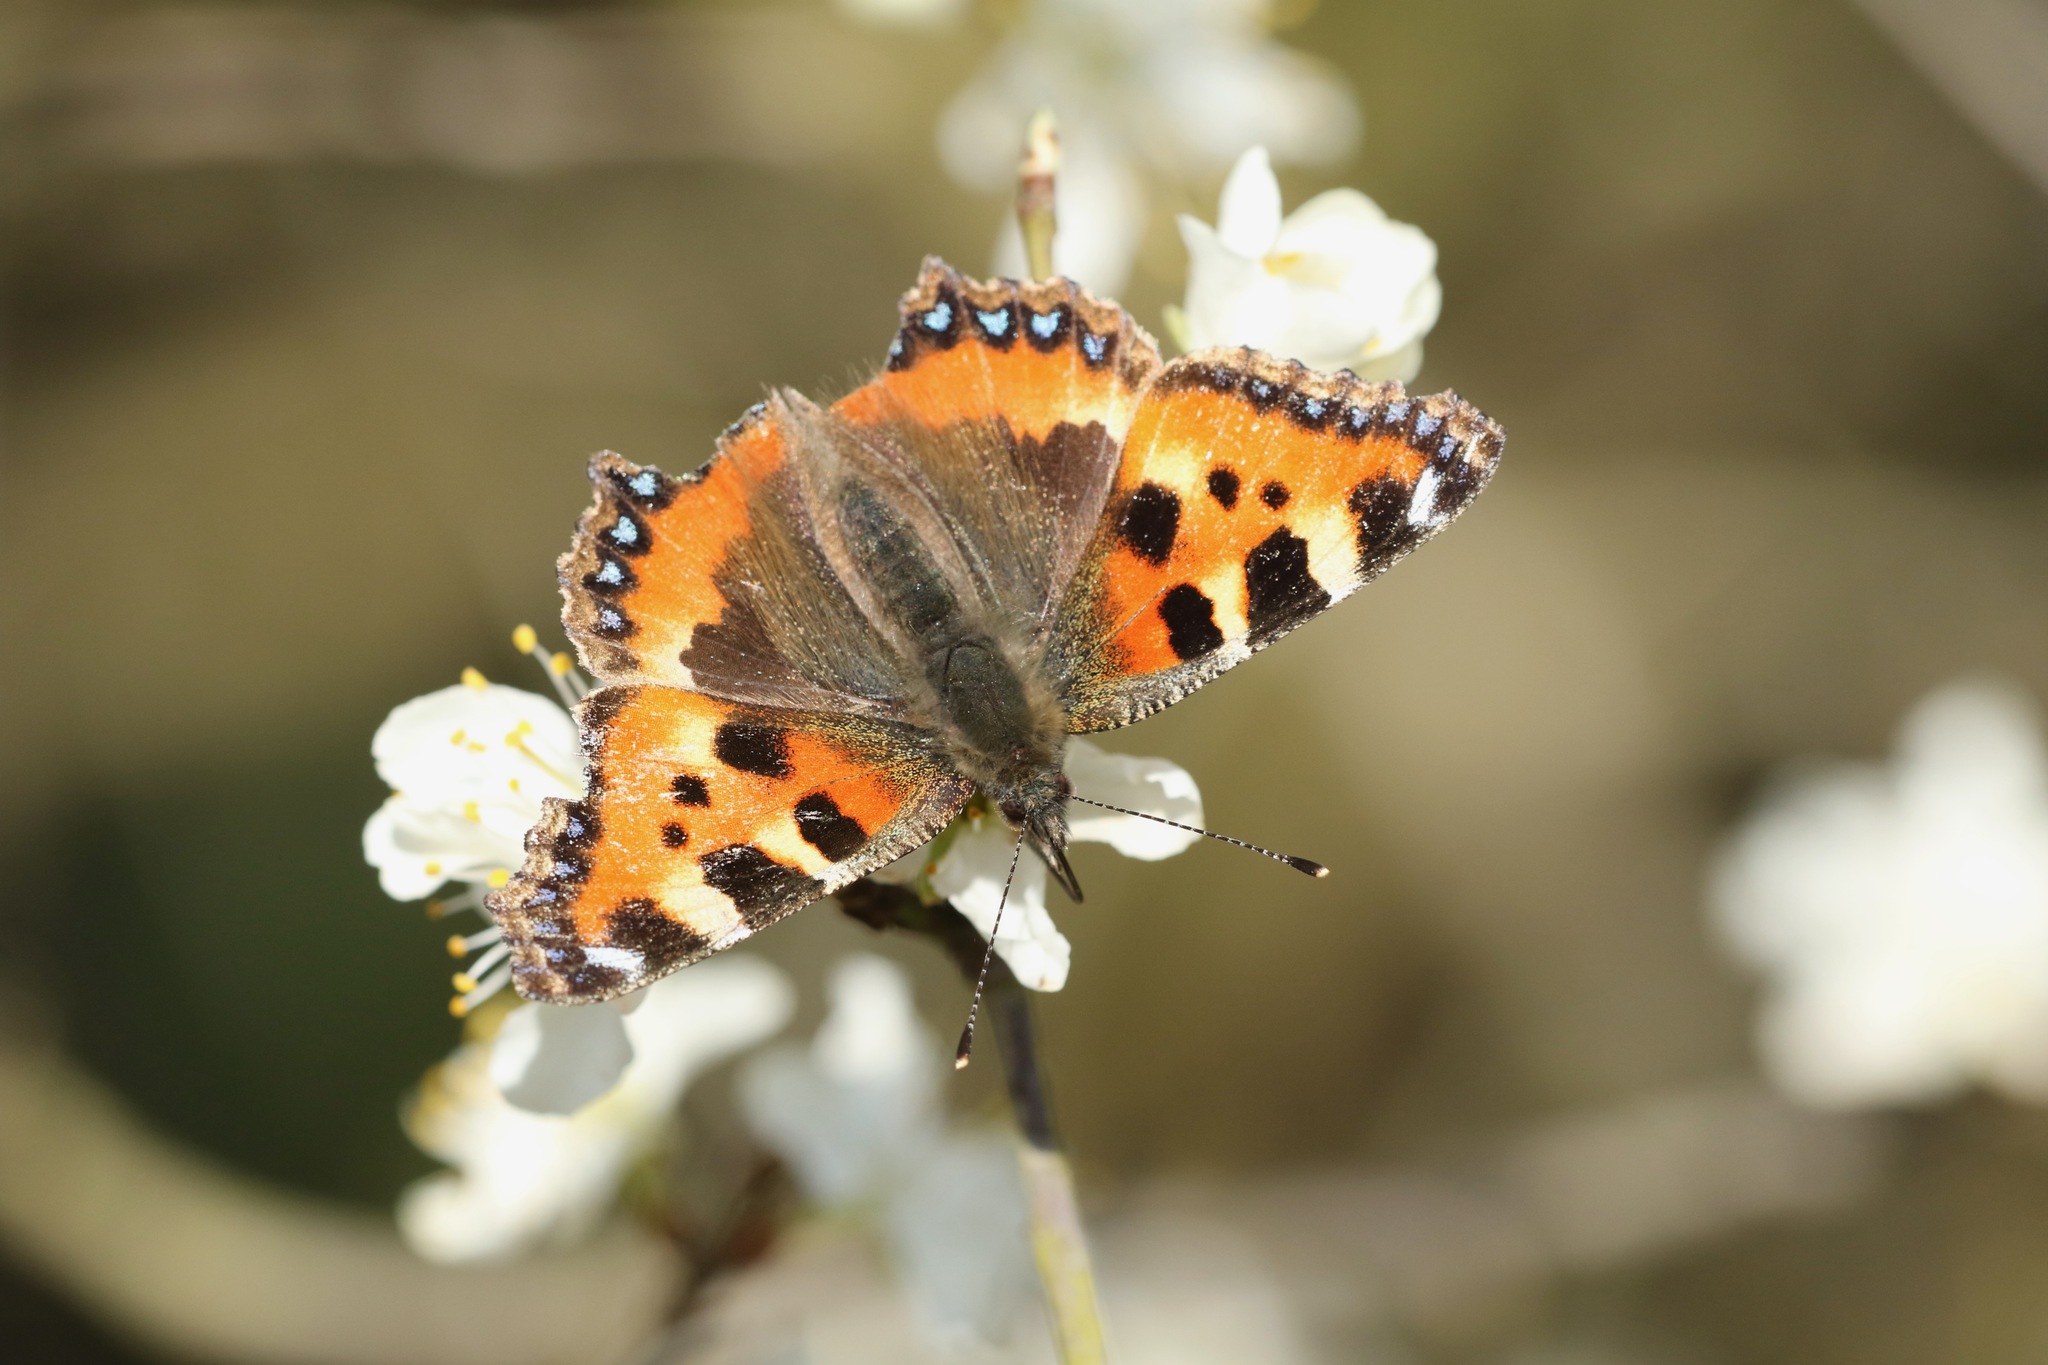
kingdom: Animalia
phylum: Arthropoda
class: Insecta
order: Lepidoptera
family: Nymphalidae
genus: Aglais
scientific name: Aglais urticae
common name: Small tortoiseshell
